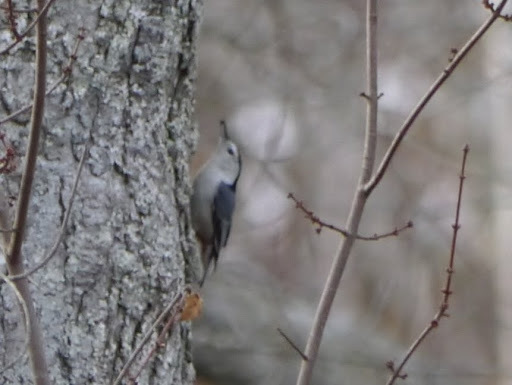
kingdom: Animalia
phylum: Chordata
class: Aves
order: Passeriformes
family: Sittidae
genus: Sitta
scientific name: Sitta carolinensis
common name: White-breasted nuthatch
